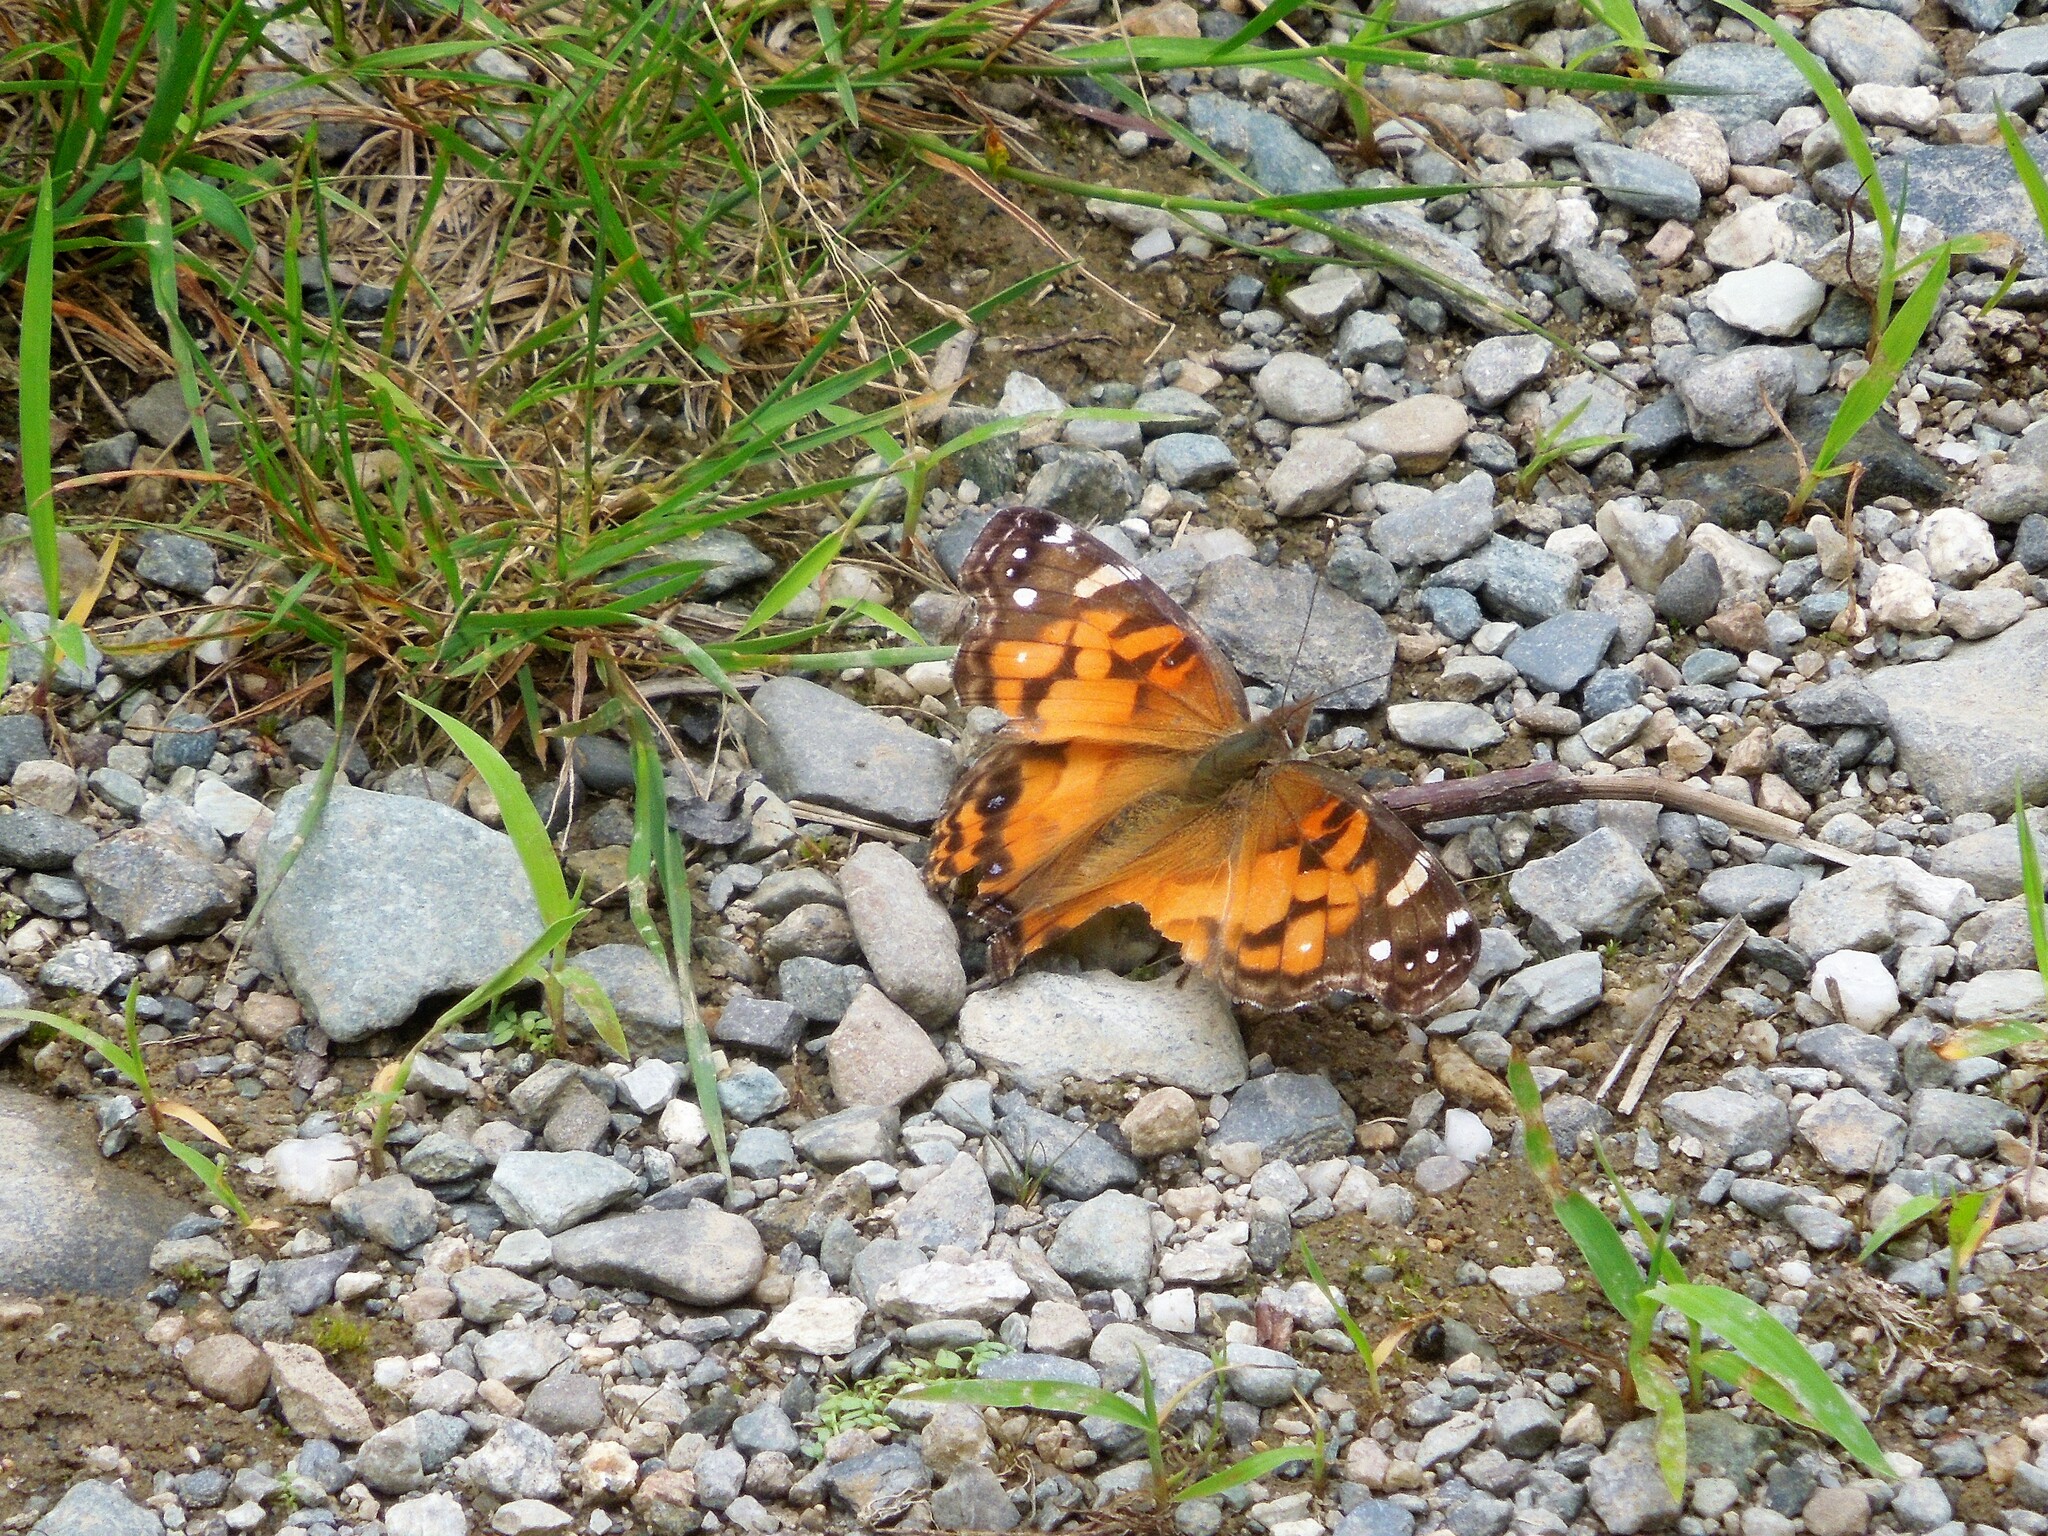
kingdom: Animalia
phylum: Arthropoda
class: Insecta
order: Lepidoptera
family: Nymphalidae
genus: Vanessa
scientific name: Vanessa virginiensis
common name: American lady
